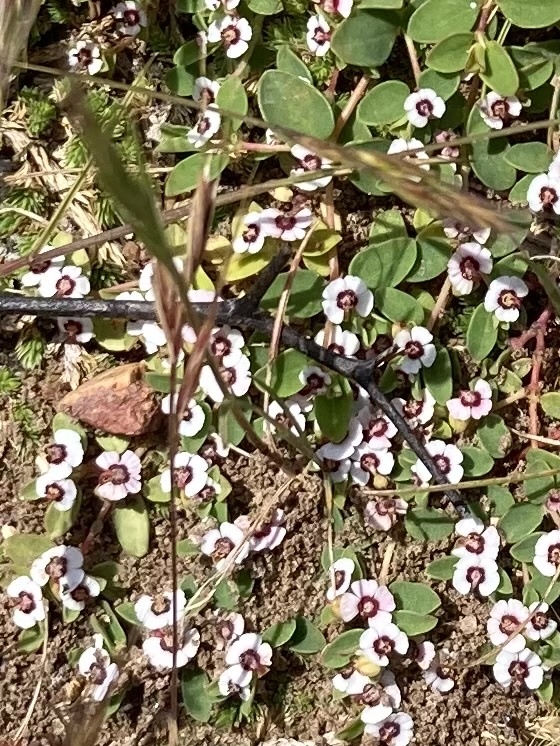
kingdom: Plantae
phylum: Tracheophyta
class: Magnoliopsida
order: Malpighiales
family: Euphorbiaceae
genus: Euphorbia
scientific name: Euphorbia polycarpa
